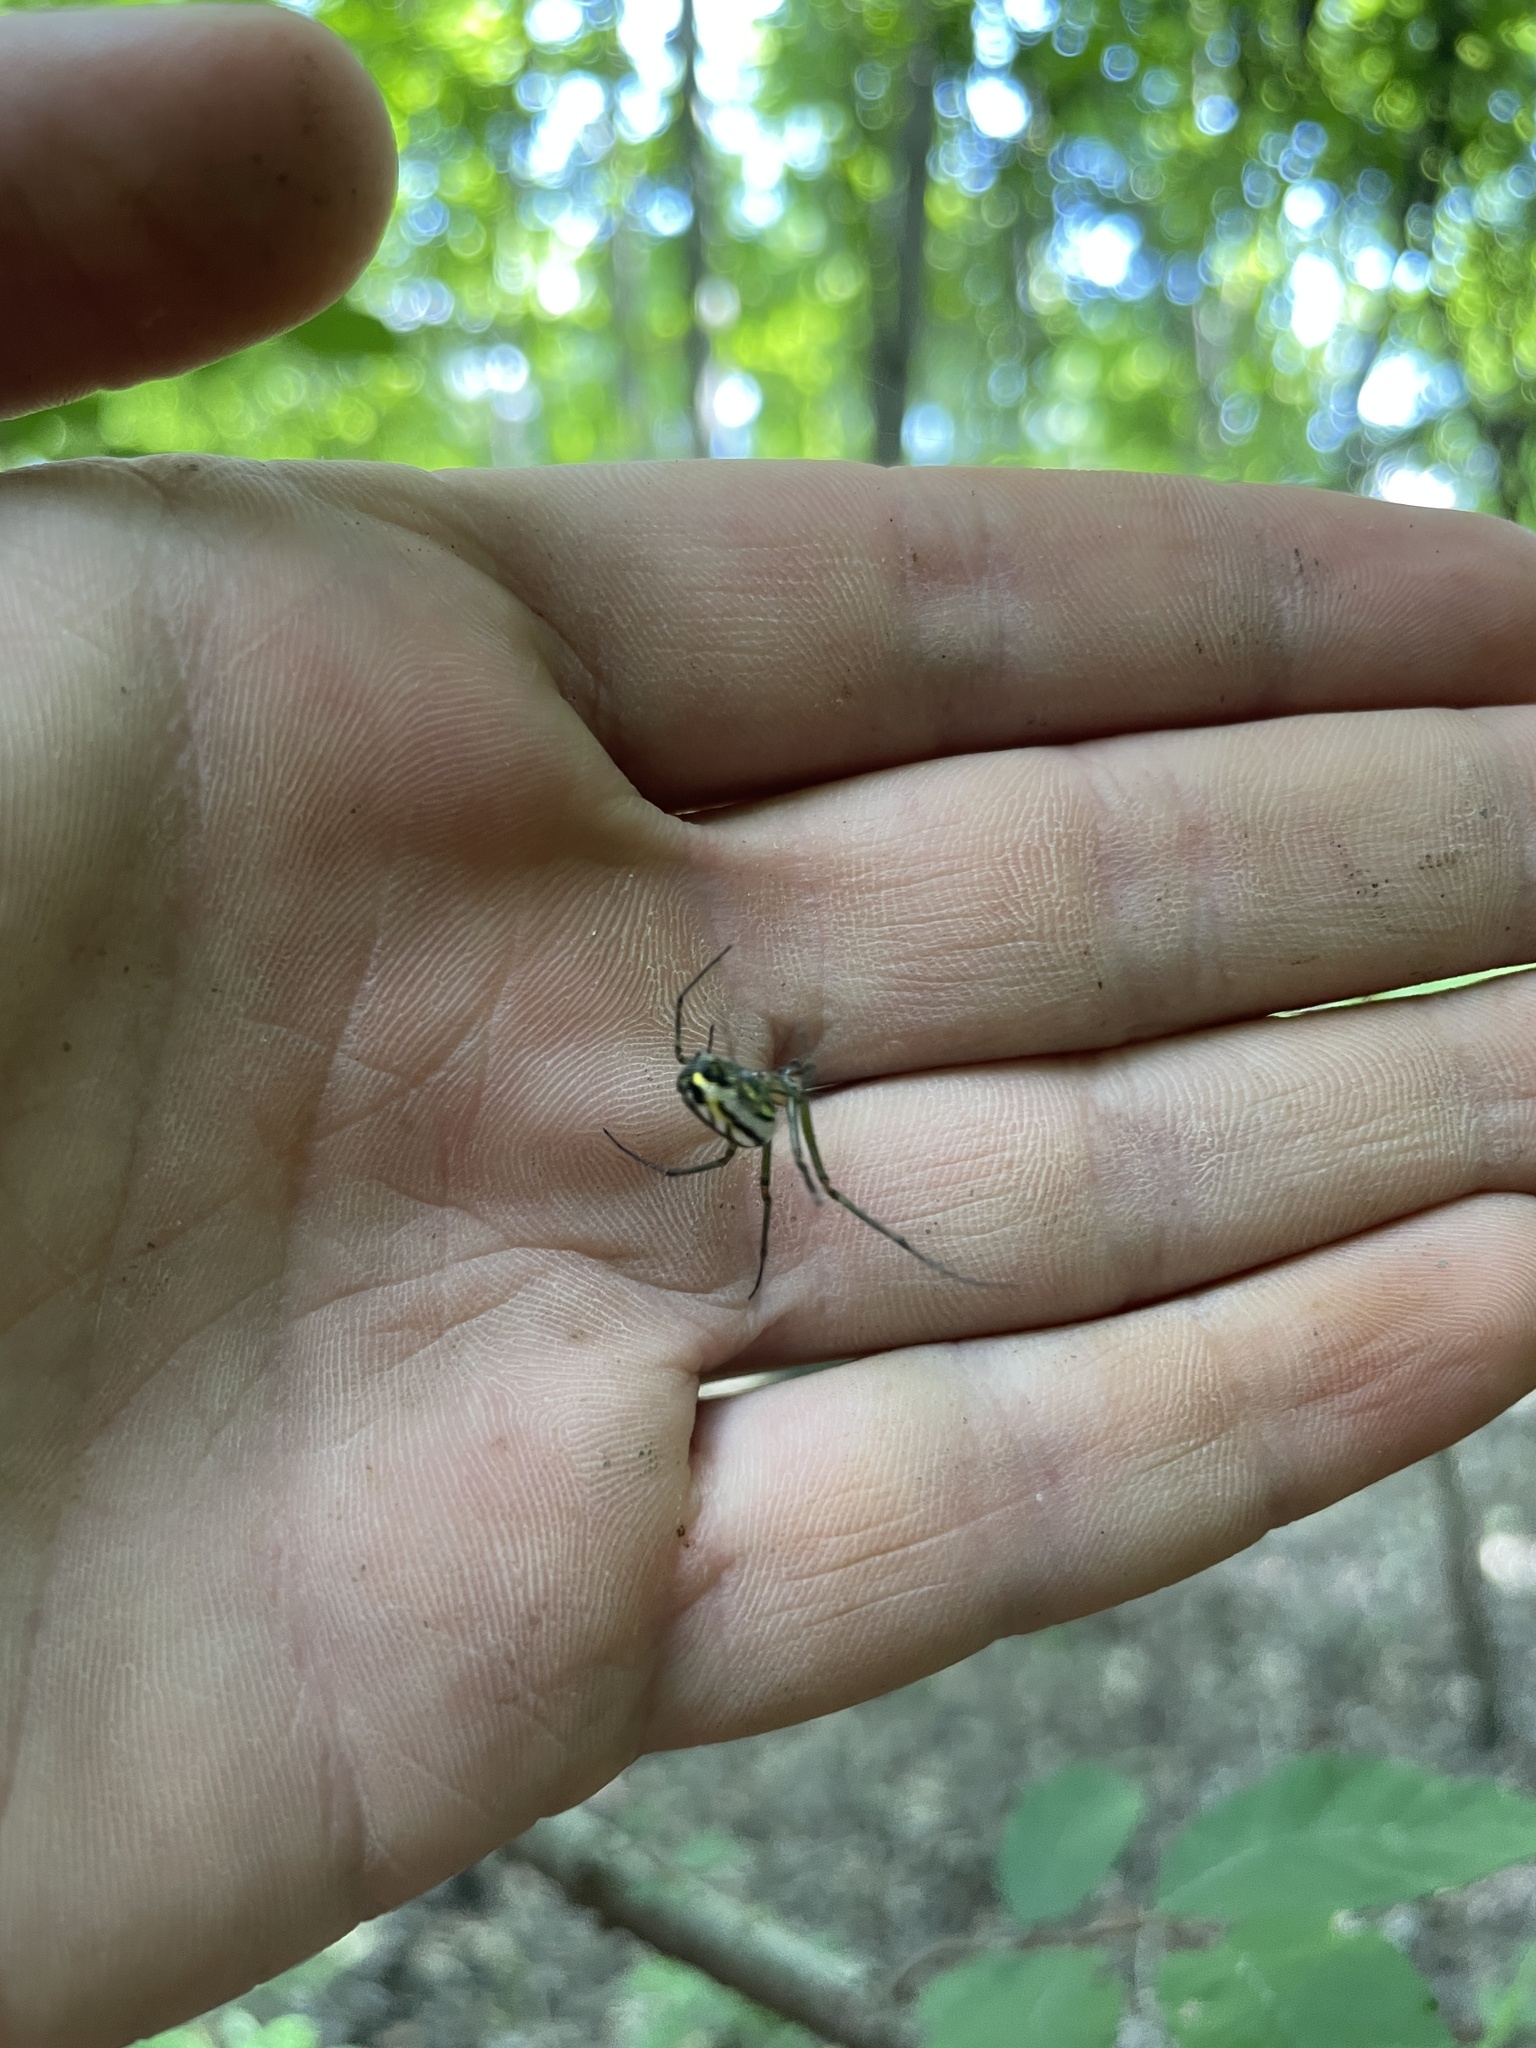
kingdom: Animalia
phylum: Arthropoda
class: Arachnida
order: Araneae
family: Tetragnathidae
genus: Leucauge
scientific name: Leucauge venusta
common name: Longjawed orb weavers
